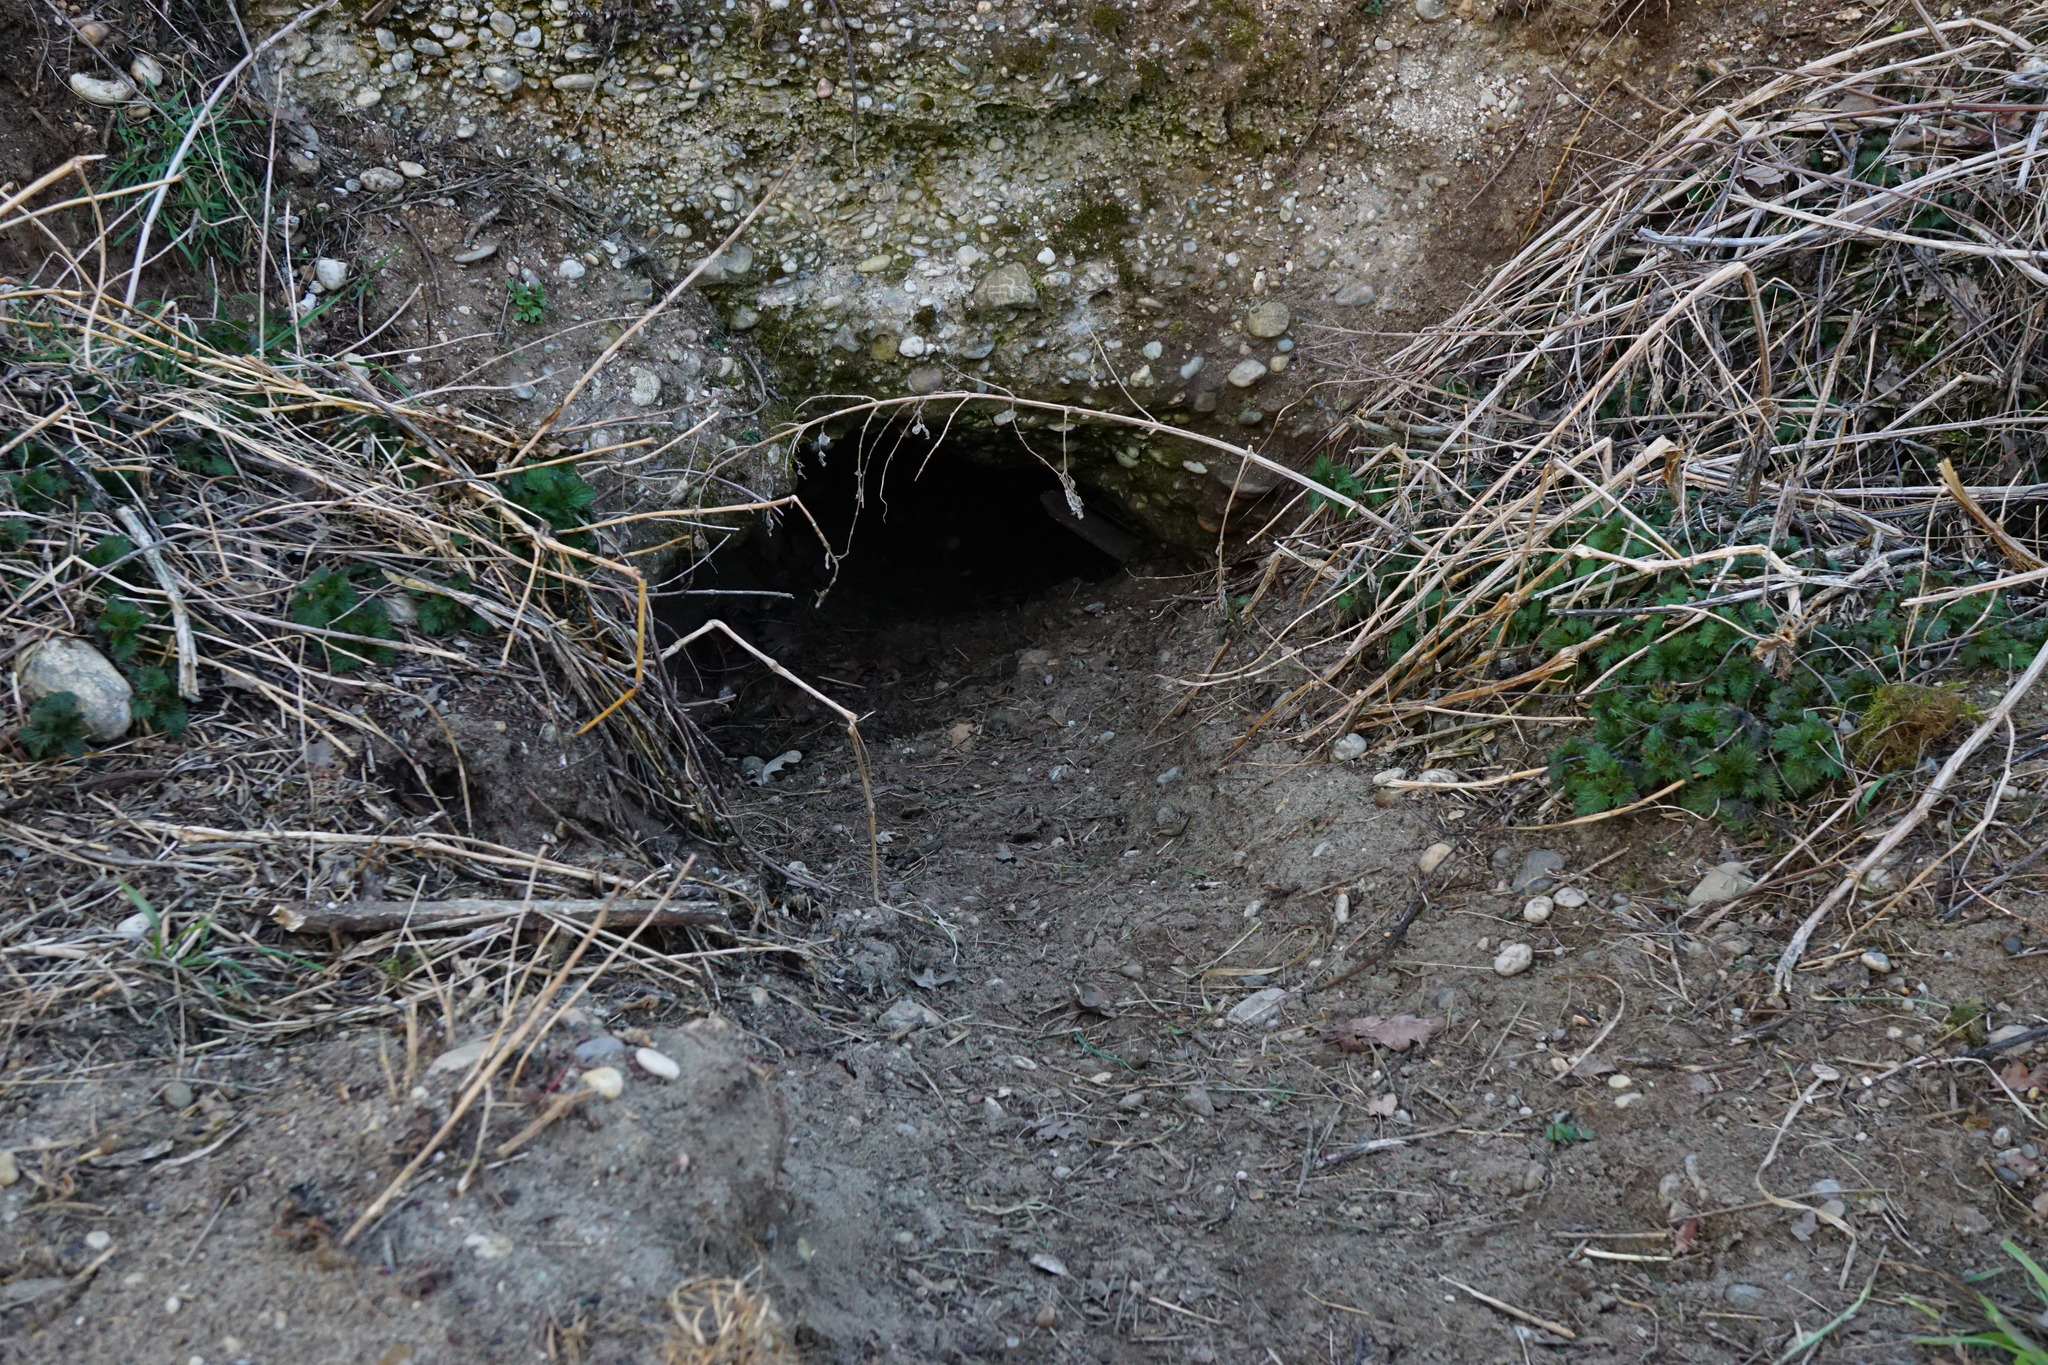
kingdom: Animalia
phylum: Chordata
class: Mammalia
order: Carnivora
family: Mustelidae
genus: Meles
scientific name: Meles meles
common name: Eurasian badger
